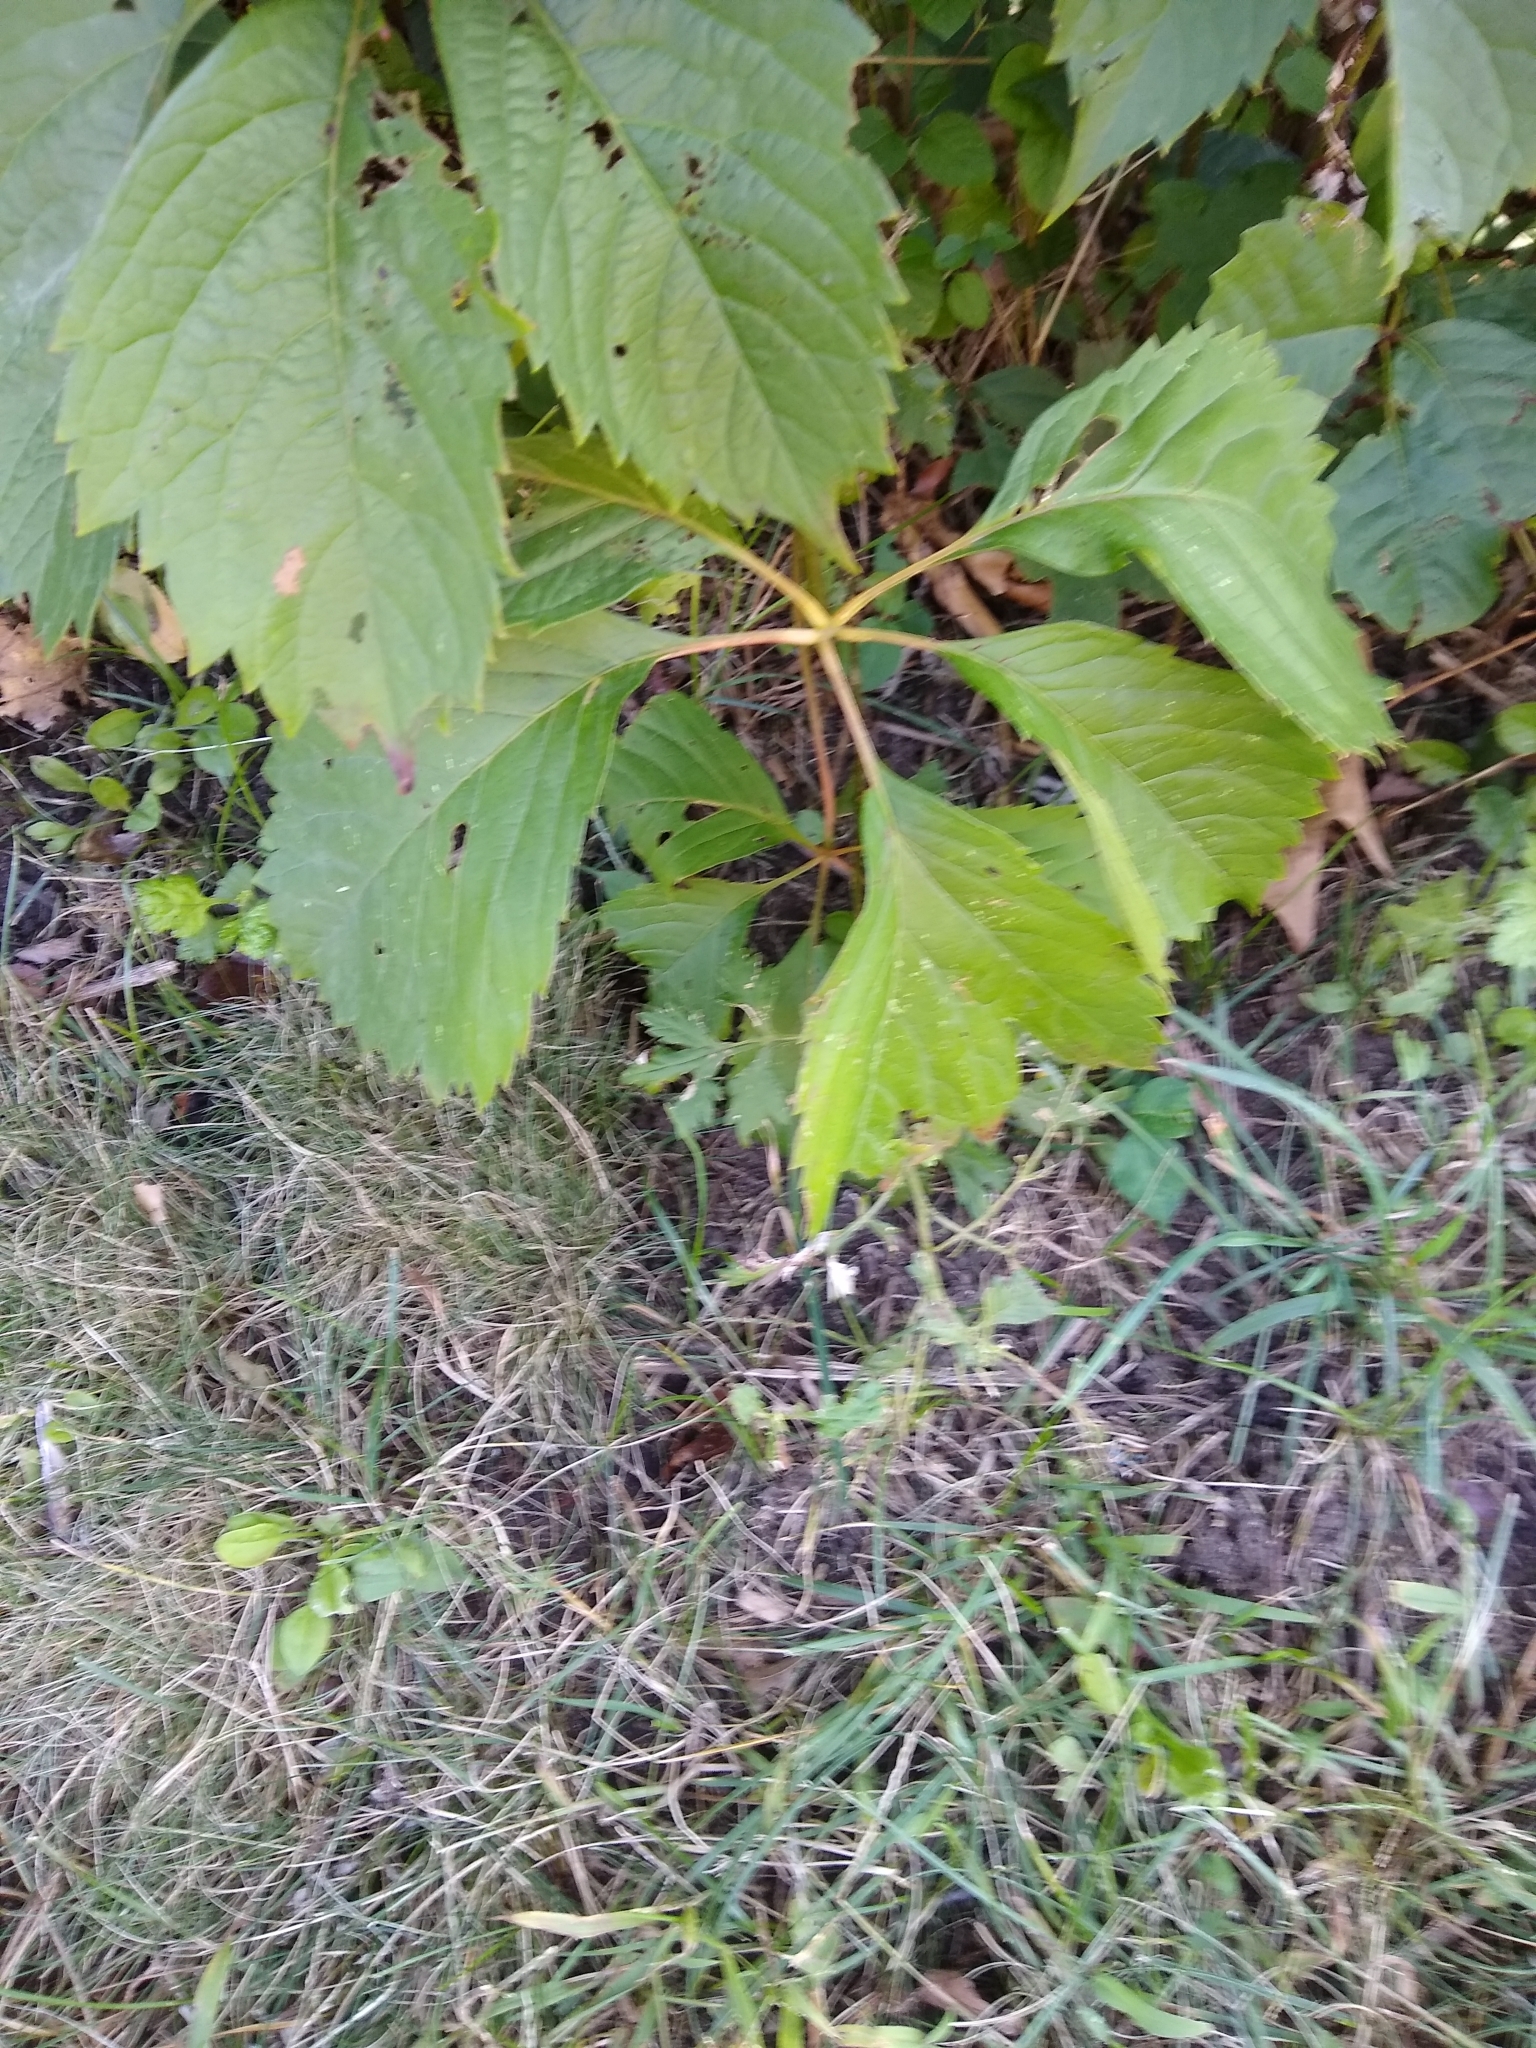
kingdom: Plantae
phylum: Tracheophyta
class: Magnoliopsida
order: Vitales
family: Vitaceae
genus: Parthenocissus
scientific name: Parthenocissus inserta
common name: False virginia-creeper
